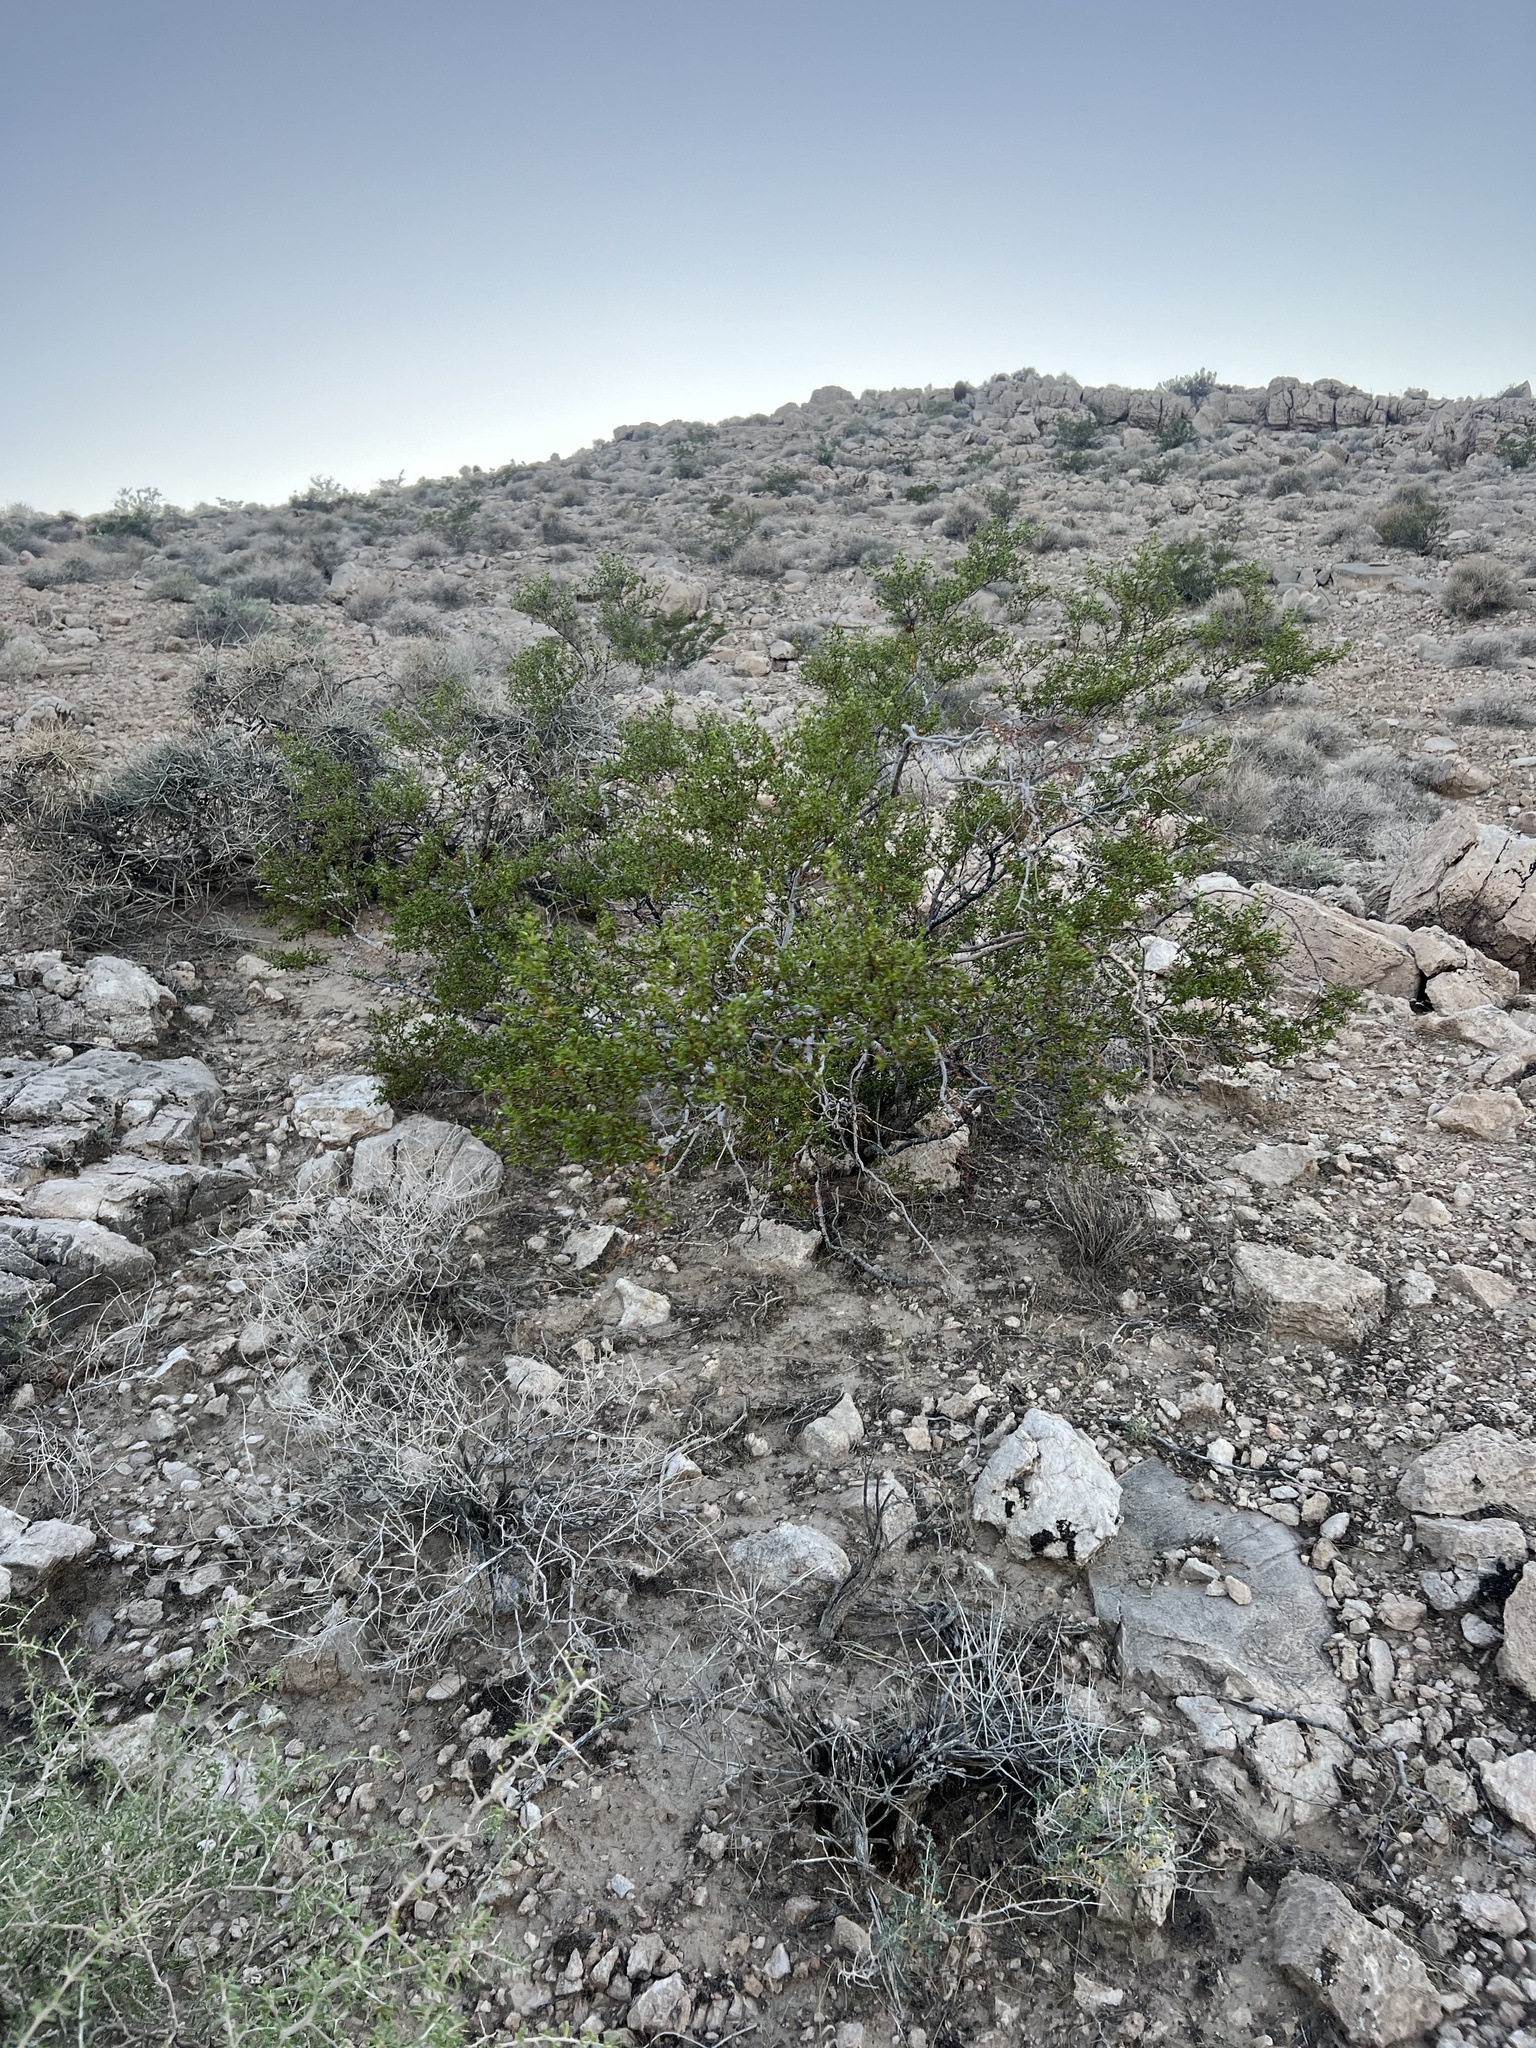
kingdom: Plantae
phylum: Tracheophyta
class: Magnoliopsida
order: Zygophyllales
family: Zygophyllaceae
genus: Larrea
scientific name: Larrea tridentata
